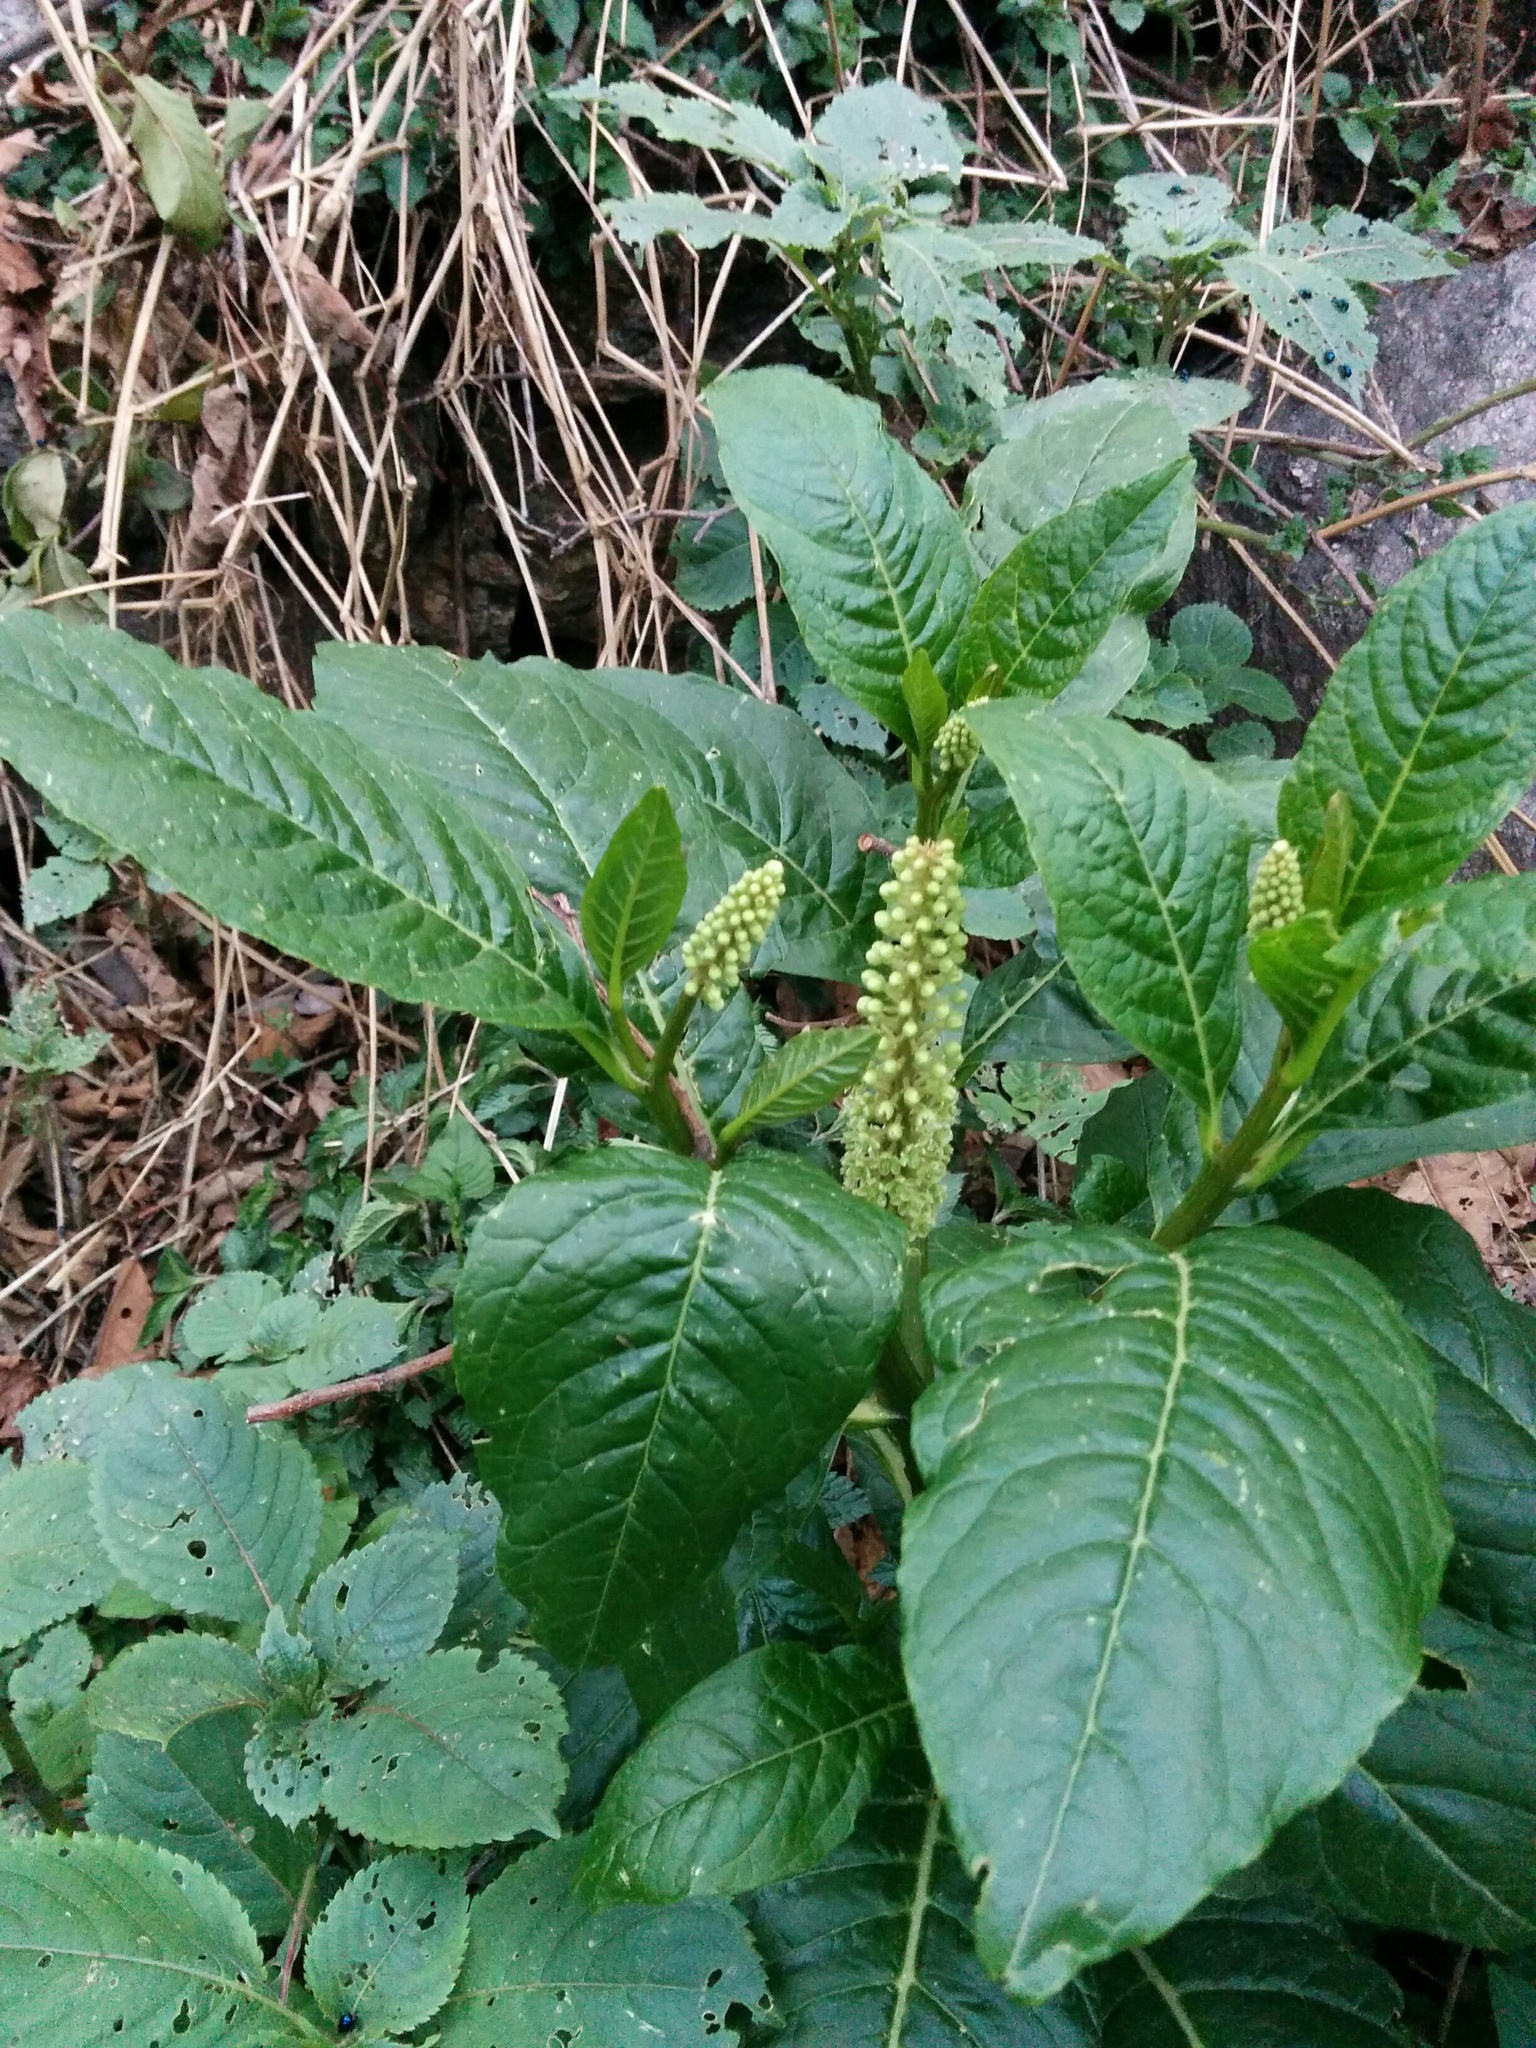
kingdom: Plantae
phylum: Tracheophyta
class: Magnoliopsida
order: Caryophyllales
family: Phytolaccaceae
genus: Phytolacca
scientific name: Phytolacca acinosa
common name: Indian pokeweed
